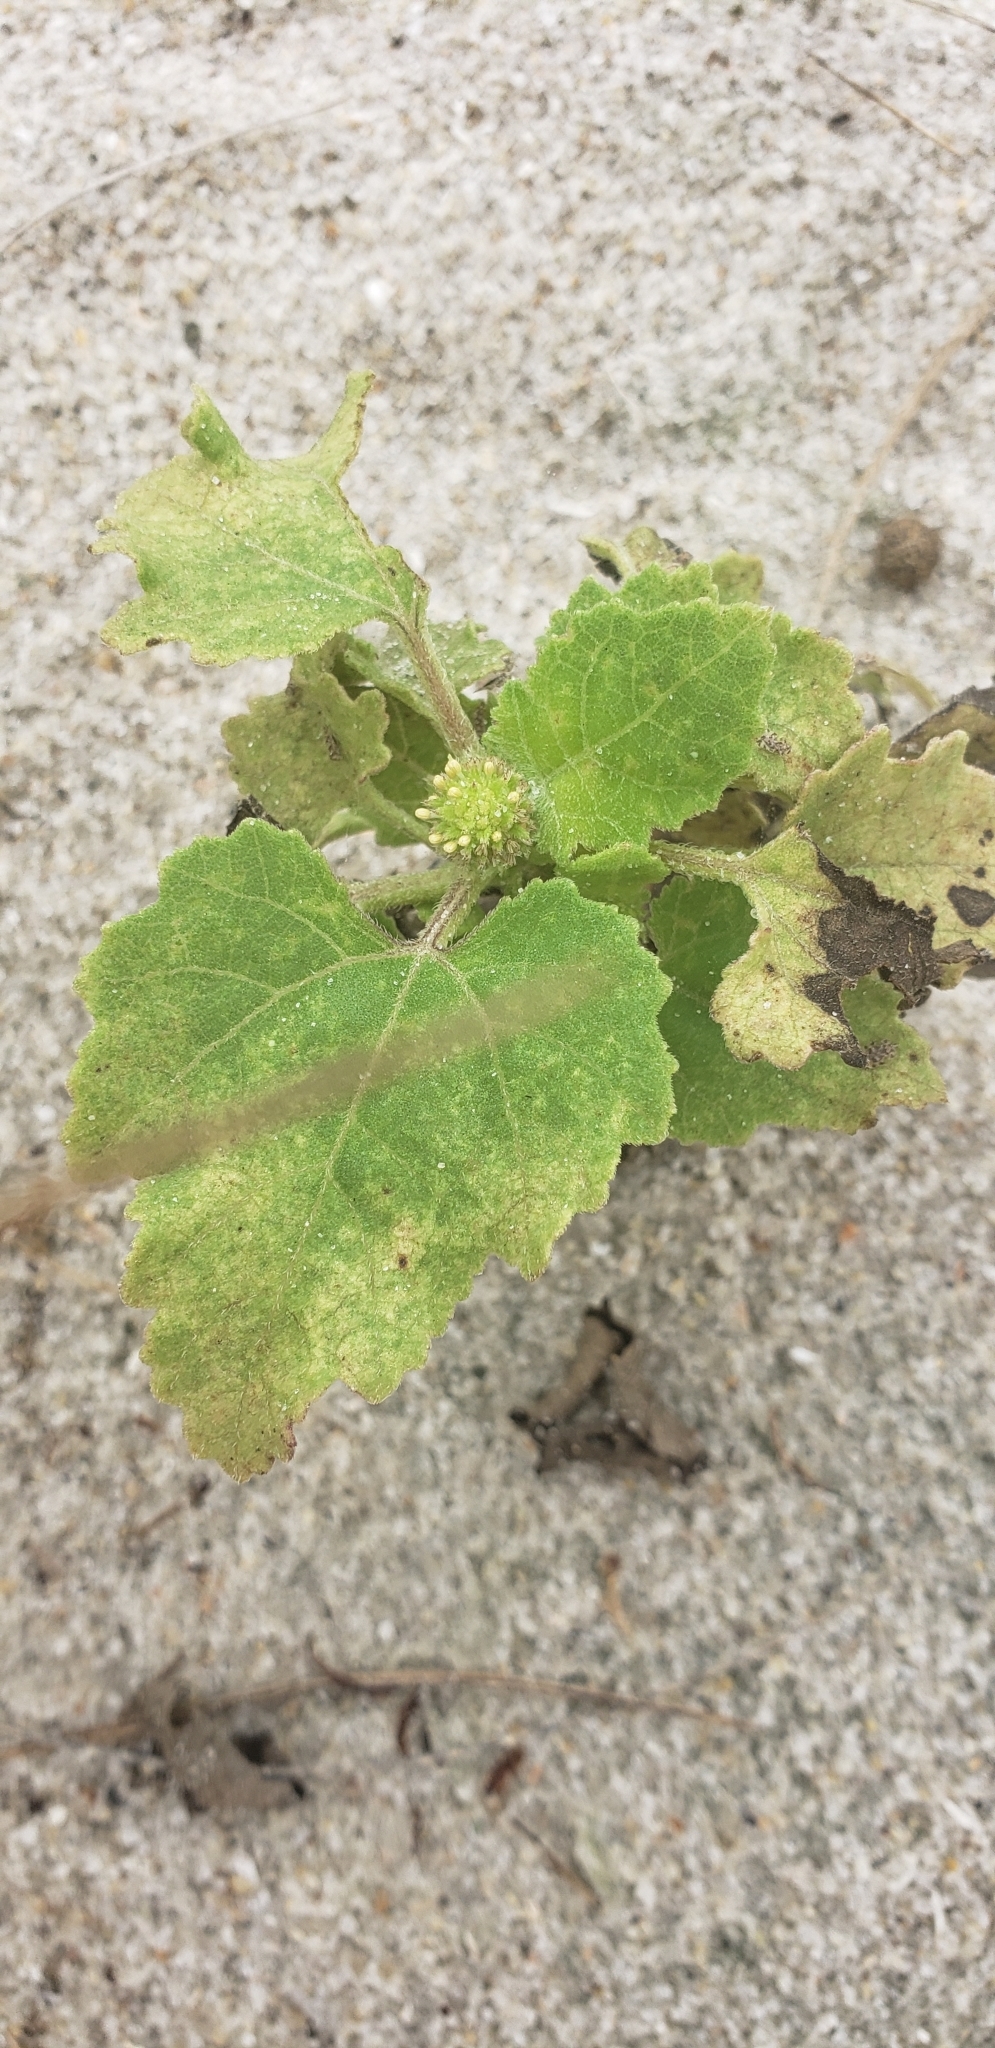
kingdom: Plantae
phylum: Tracheophyta
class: Magnoliopsida
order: Asterales
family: Asteraceae
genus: Xanthium
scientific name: Xanthium strumarium
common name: Rough cocklebur
